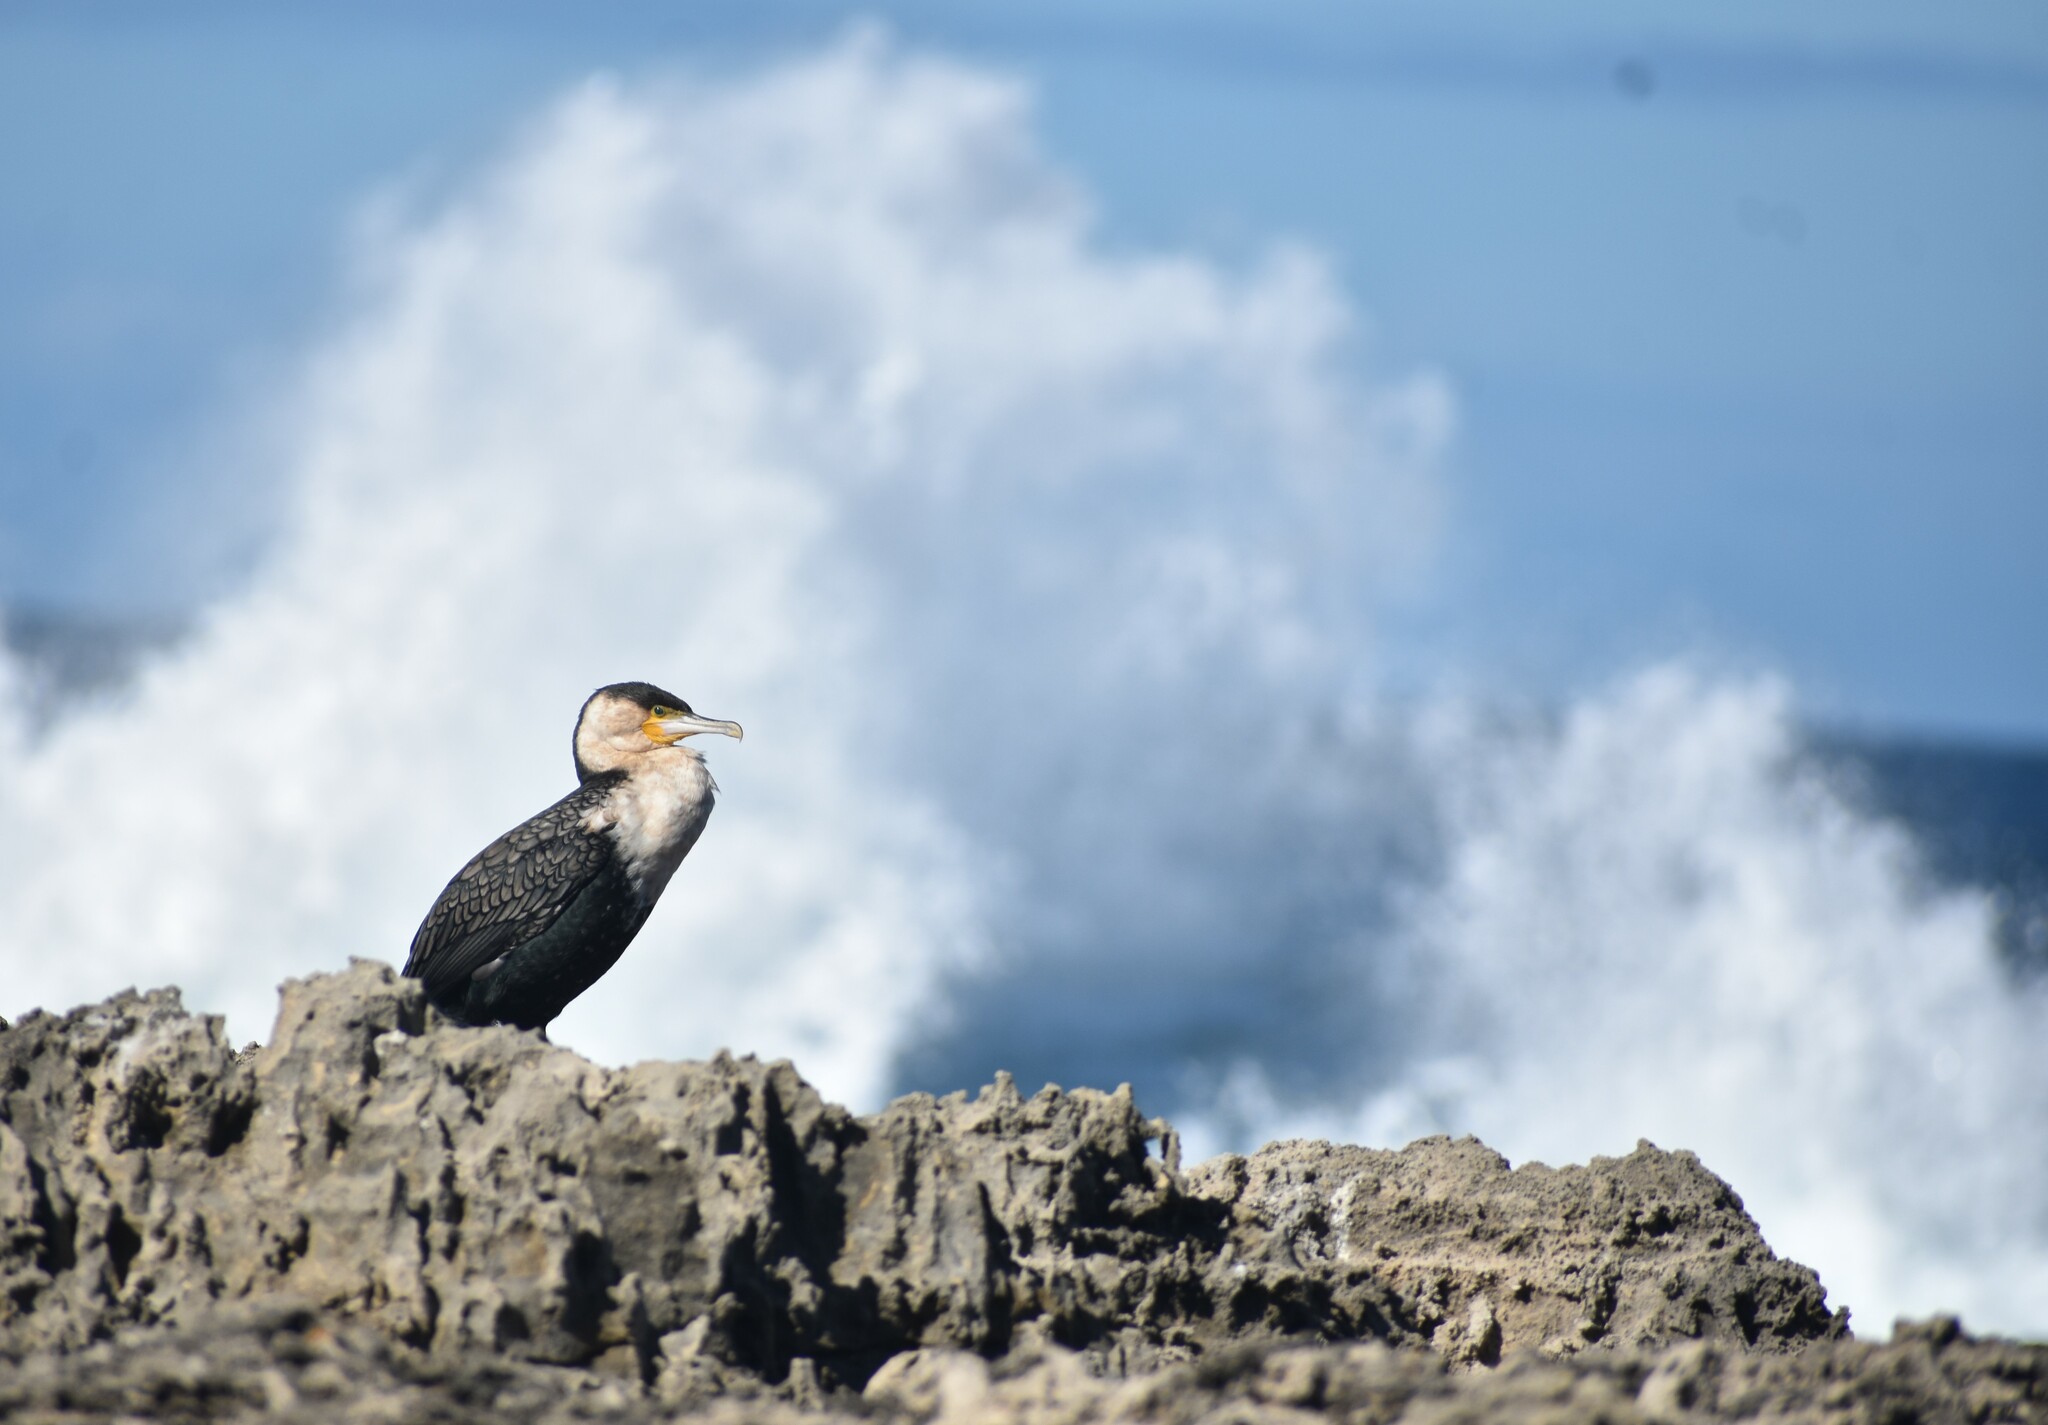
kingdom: Animalia
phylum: Chordata
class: Aves
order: Suliformes
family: Phalacrocoracidae
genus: Phalacrocorax
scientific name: Phalacrocorax carbo
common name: Great cormorant
